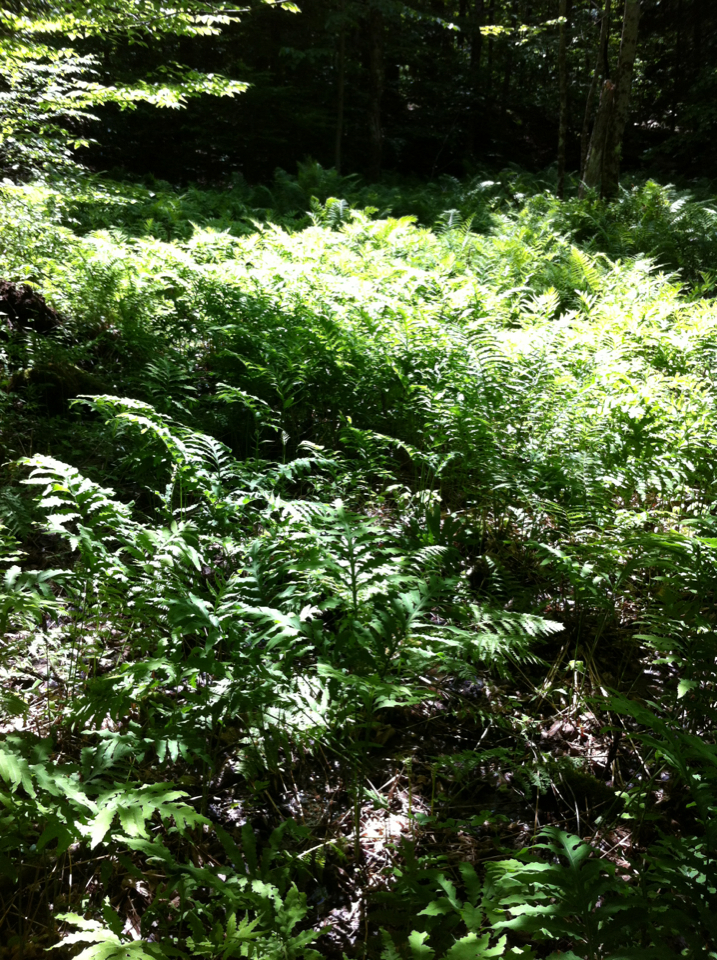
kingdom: Plantae
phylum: Tracheophyta
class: Polypodiopsida
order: Polypodiales
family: Onocleaceae
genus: Onoclea
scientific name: Onoclea sensibilis
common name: Sensitive fern
